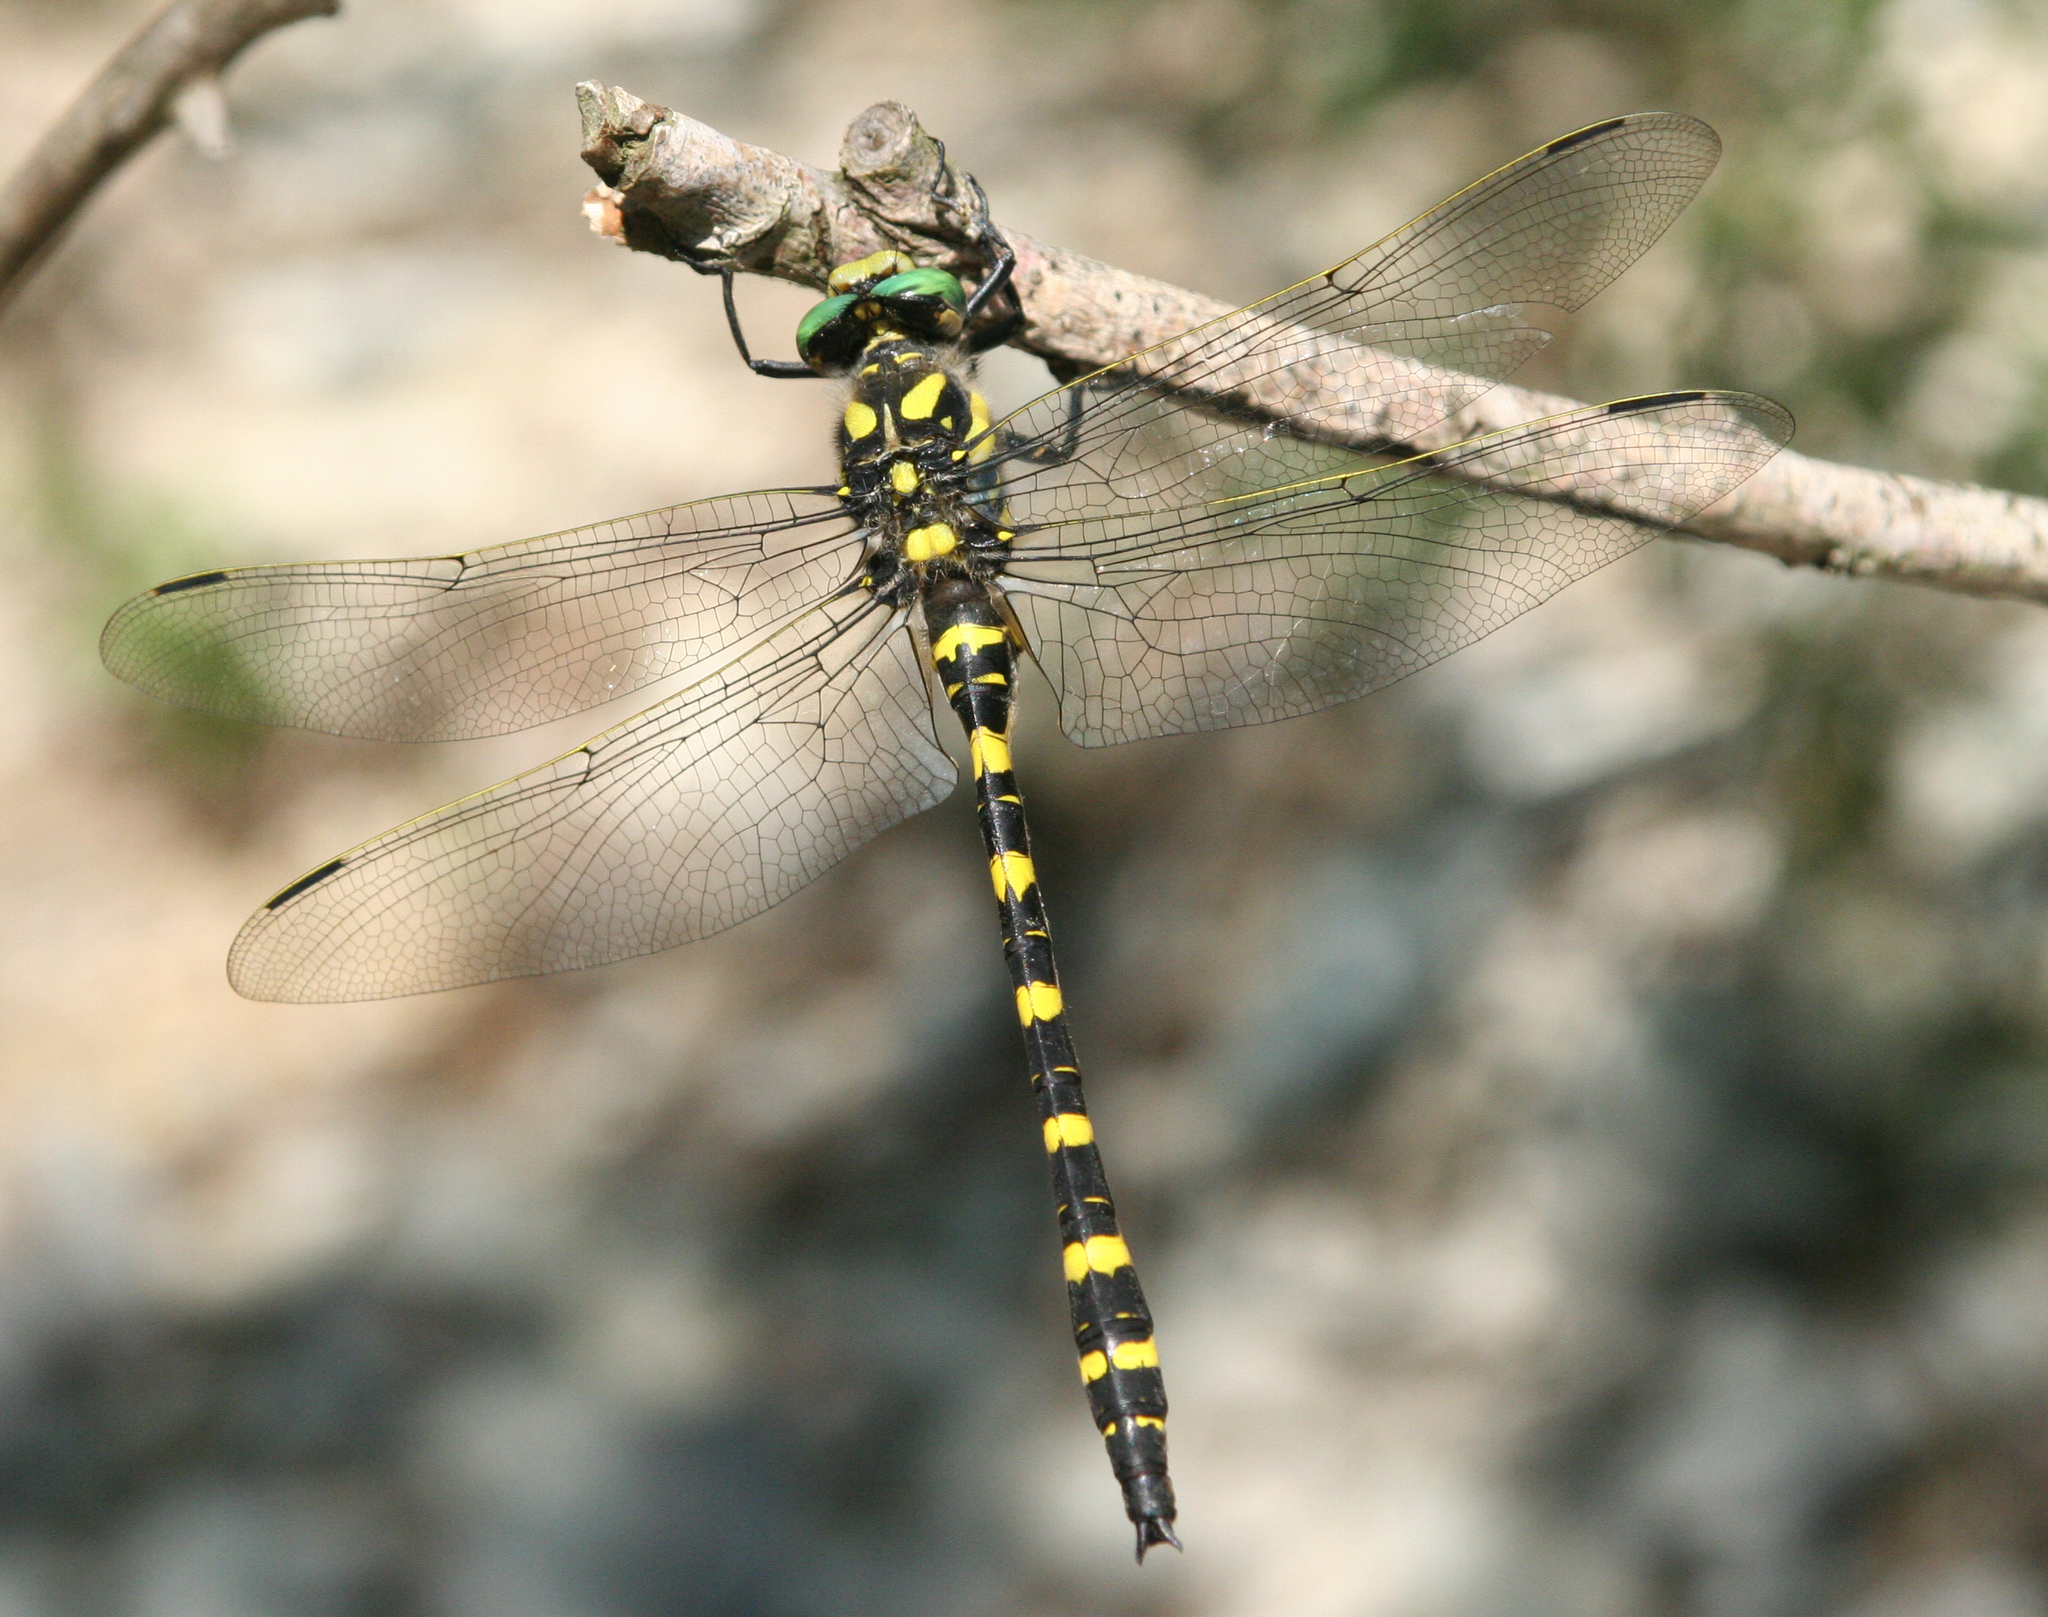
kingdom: Animalia
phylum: Arthropoda
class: Insecta
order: Odonata
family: Cordulegastridae
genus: Cordulegaster
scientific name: Cordulegaster picta
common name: Turkish goldenring
